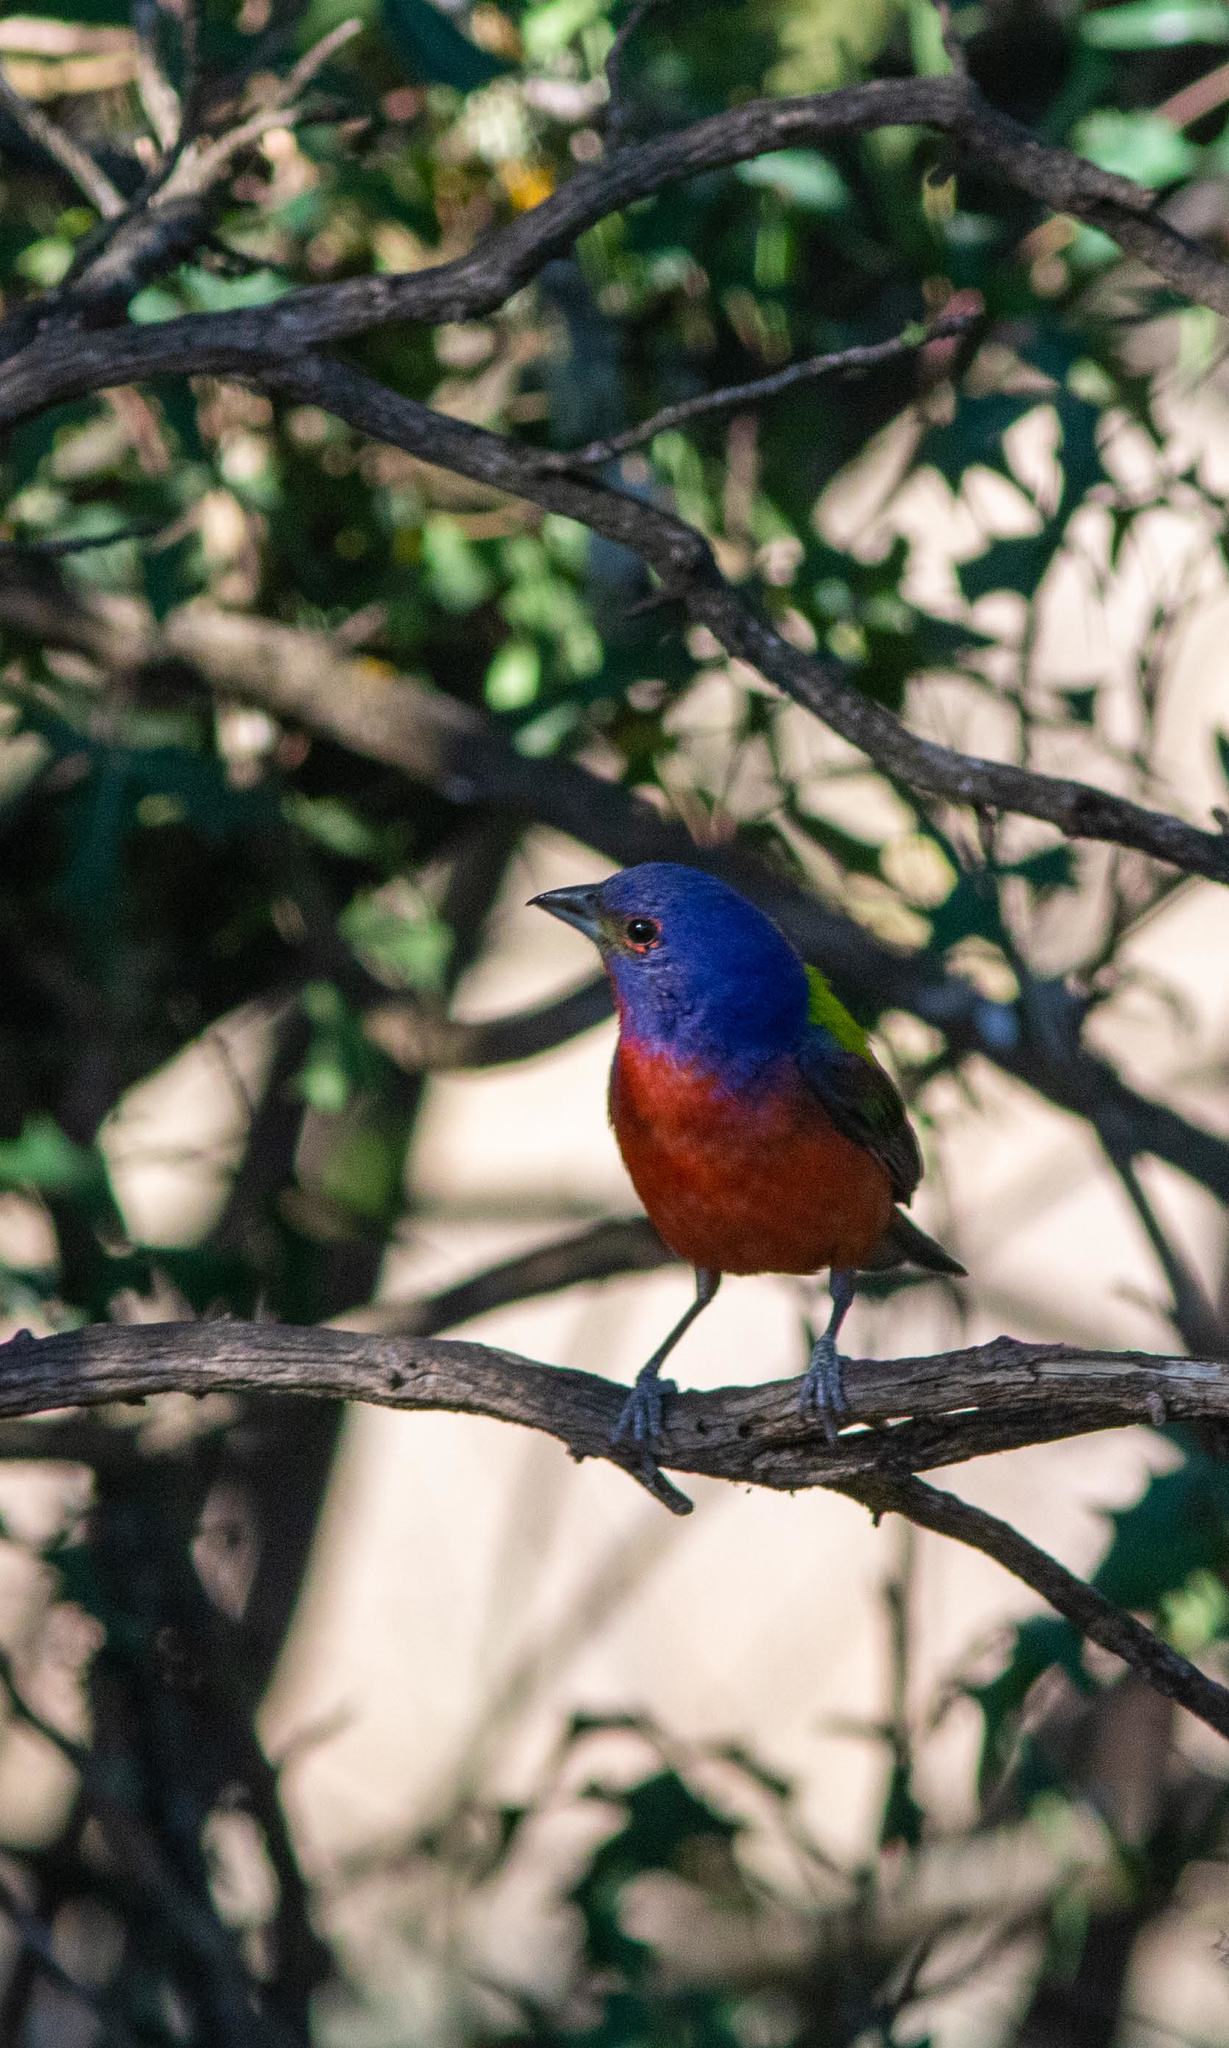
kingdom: Animalia
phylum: Chordata
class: Aves
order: Passeriformes
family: Cardinalidae
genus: Passerina
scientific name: Passerina ciris
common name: Painted bunting
